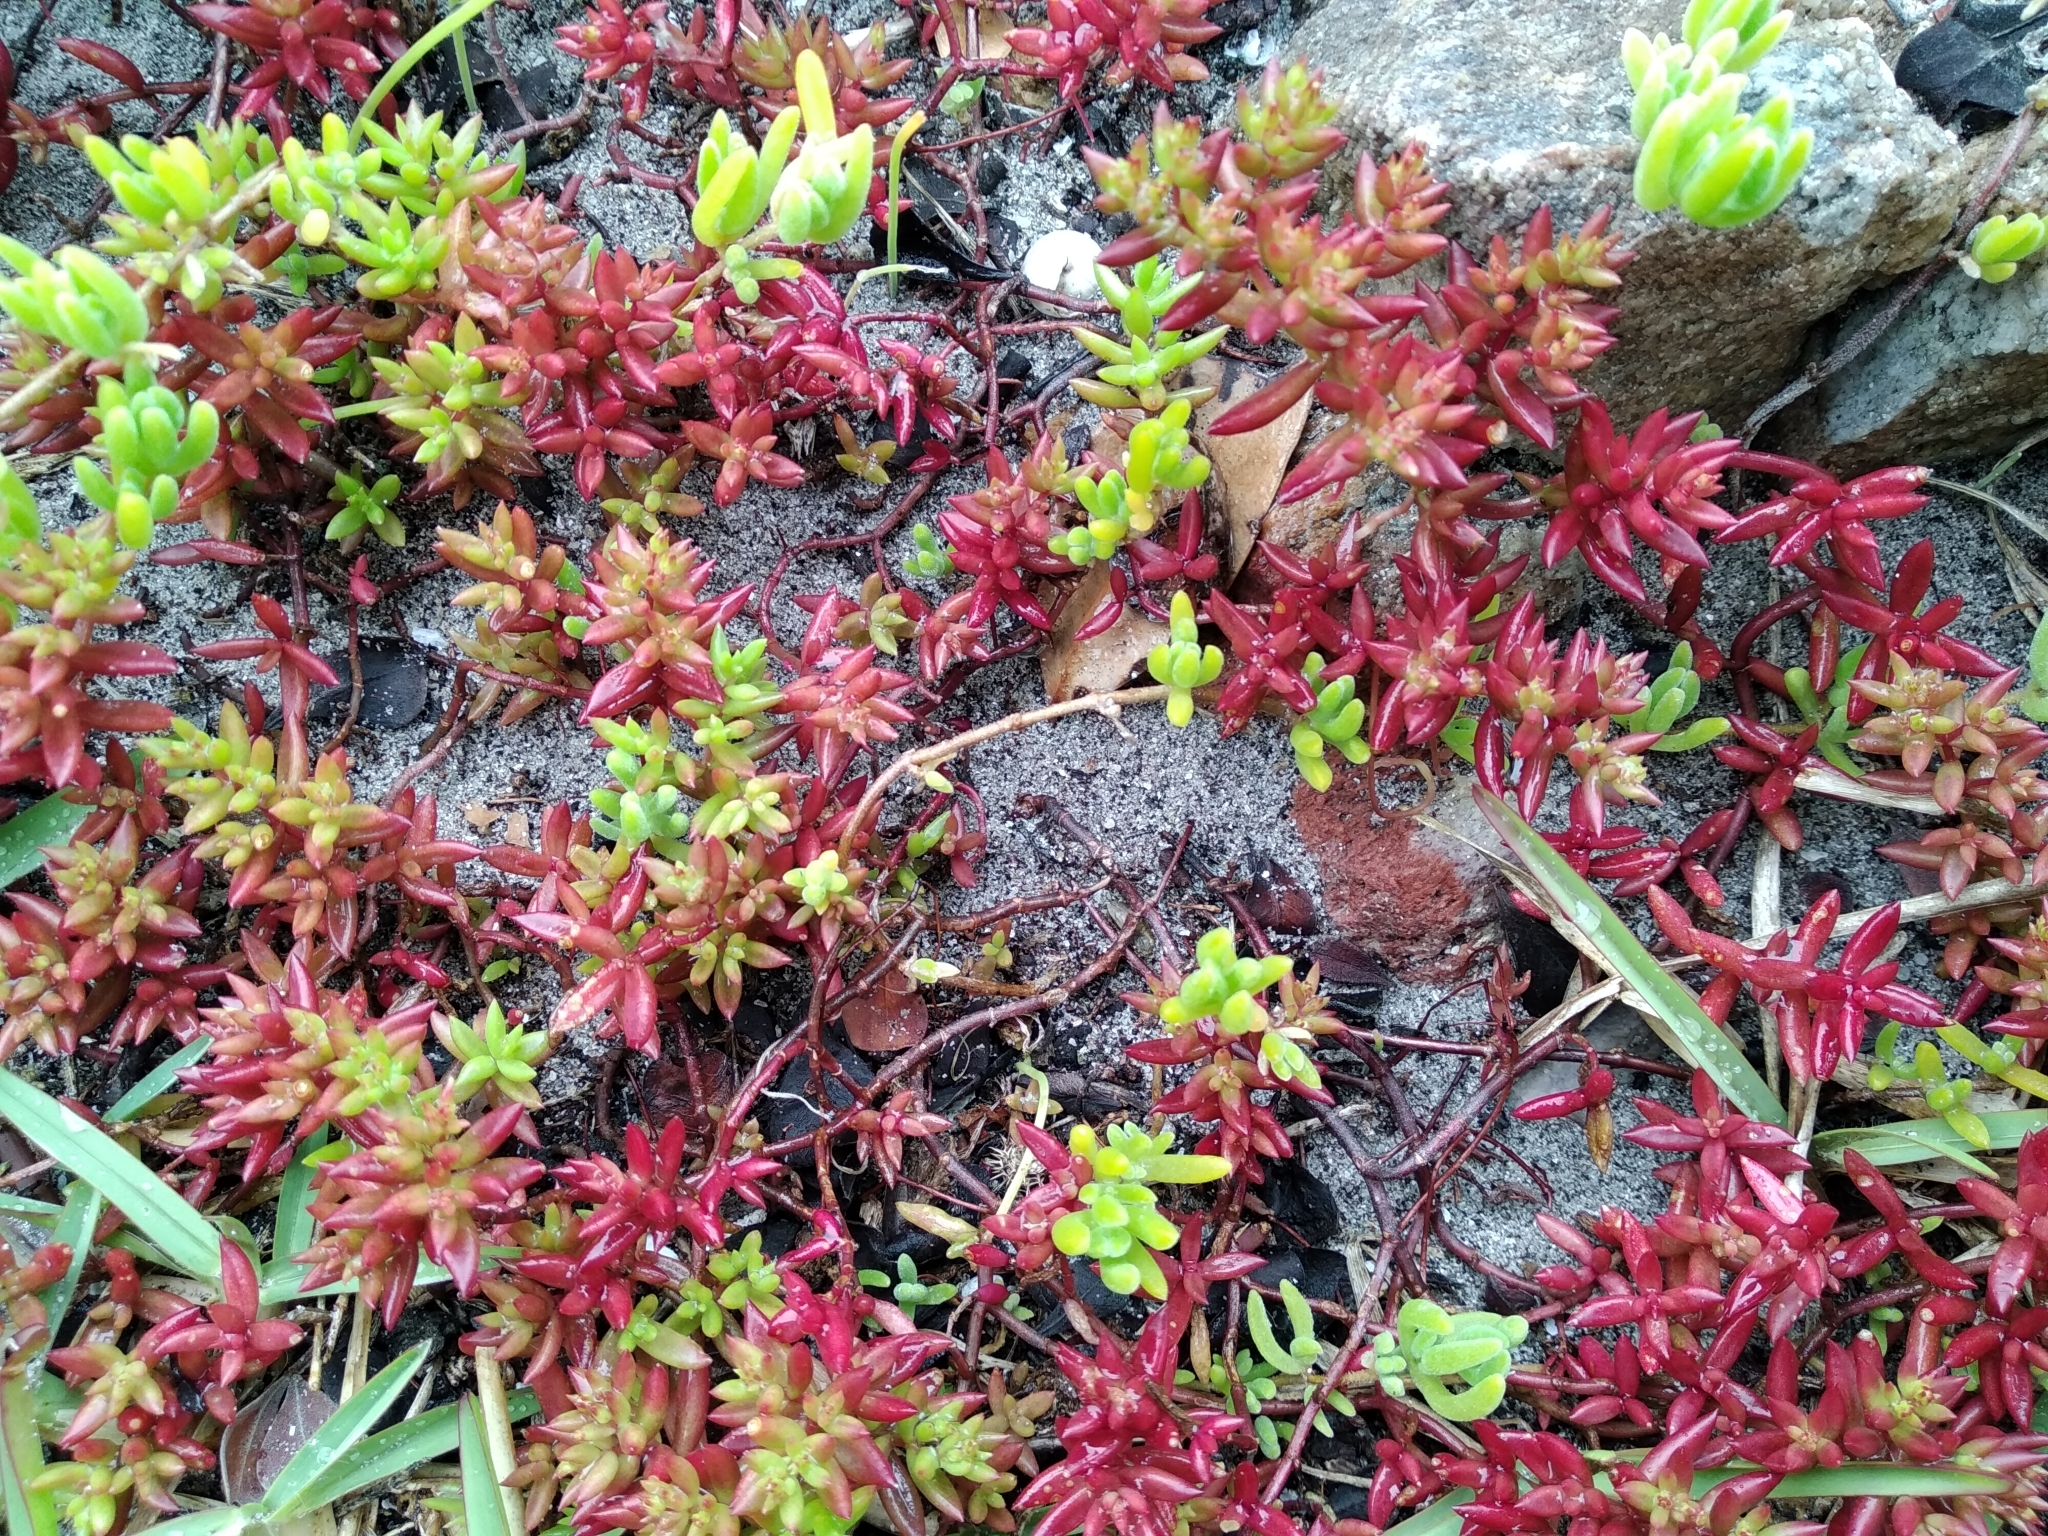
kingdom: Plantae
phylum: Tracheophyta
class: Magnoliopsida
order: Saxifragales
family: Crassulaceae
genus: Crassula
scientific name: Crassula expansa
